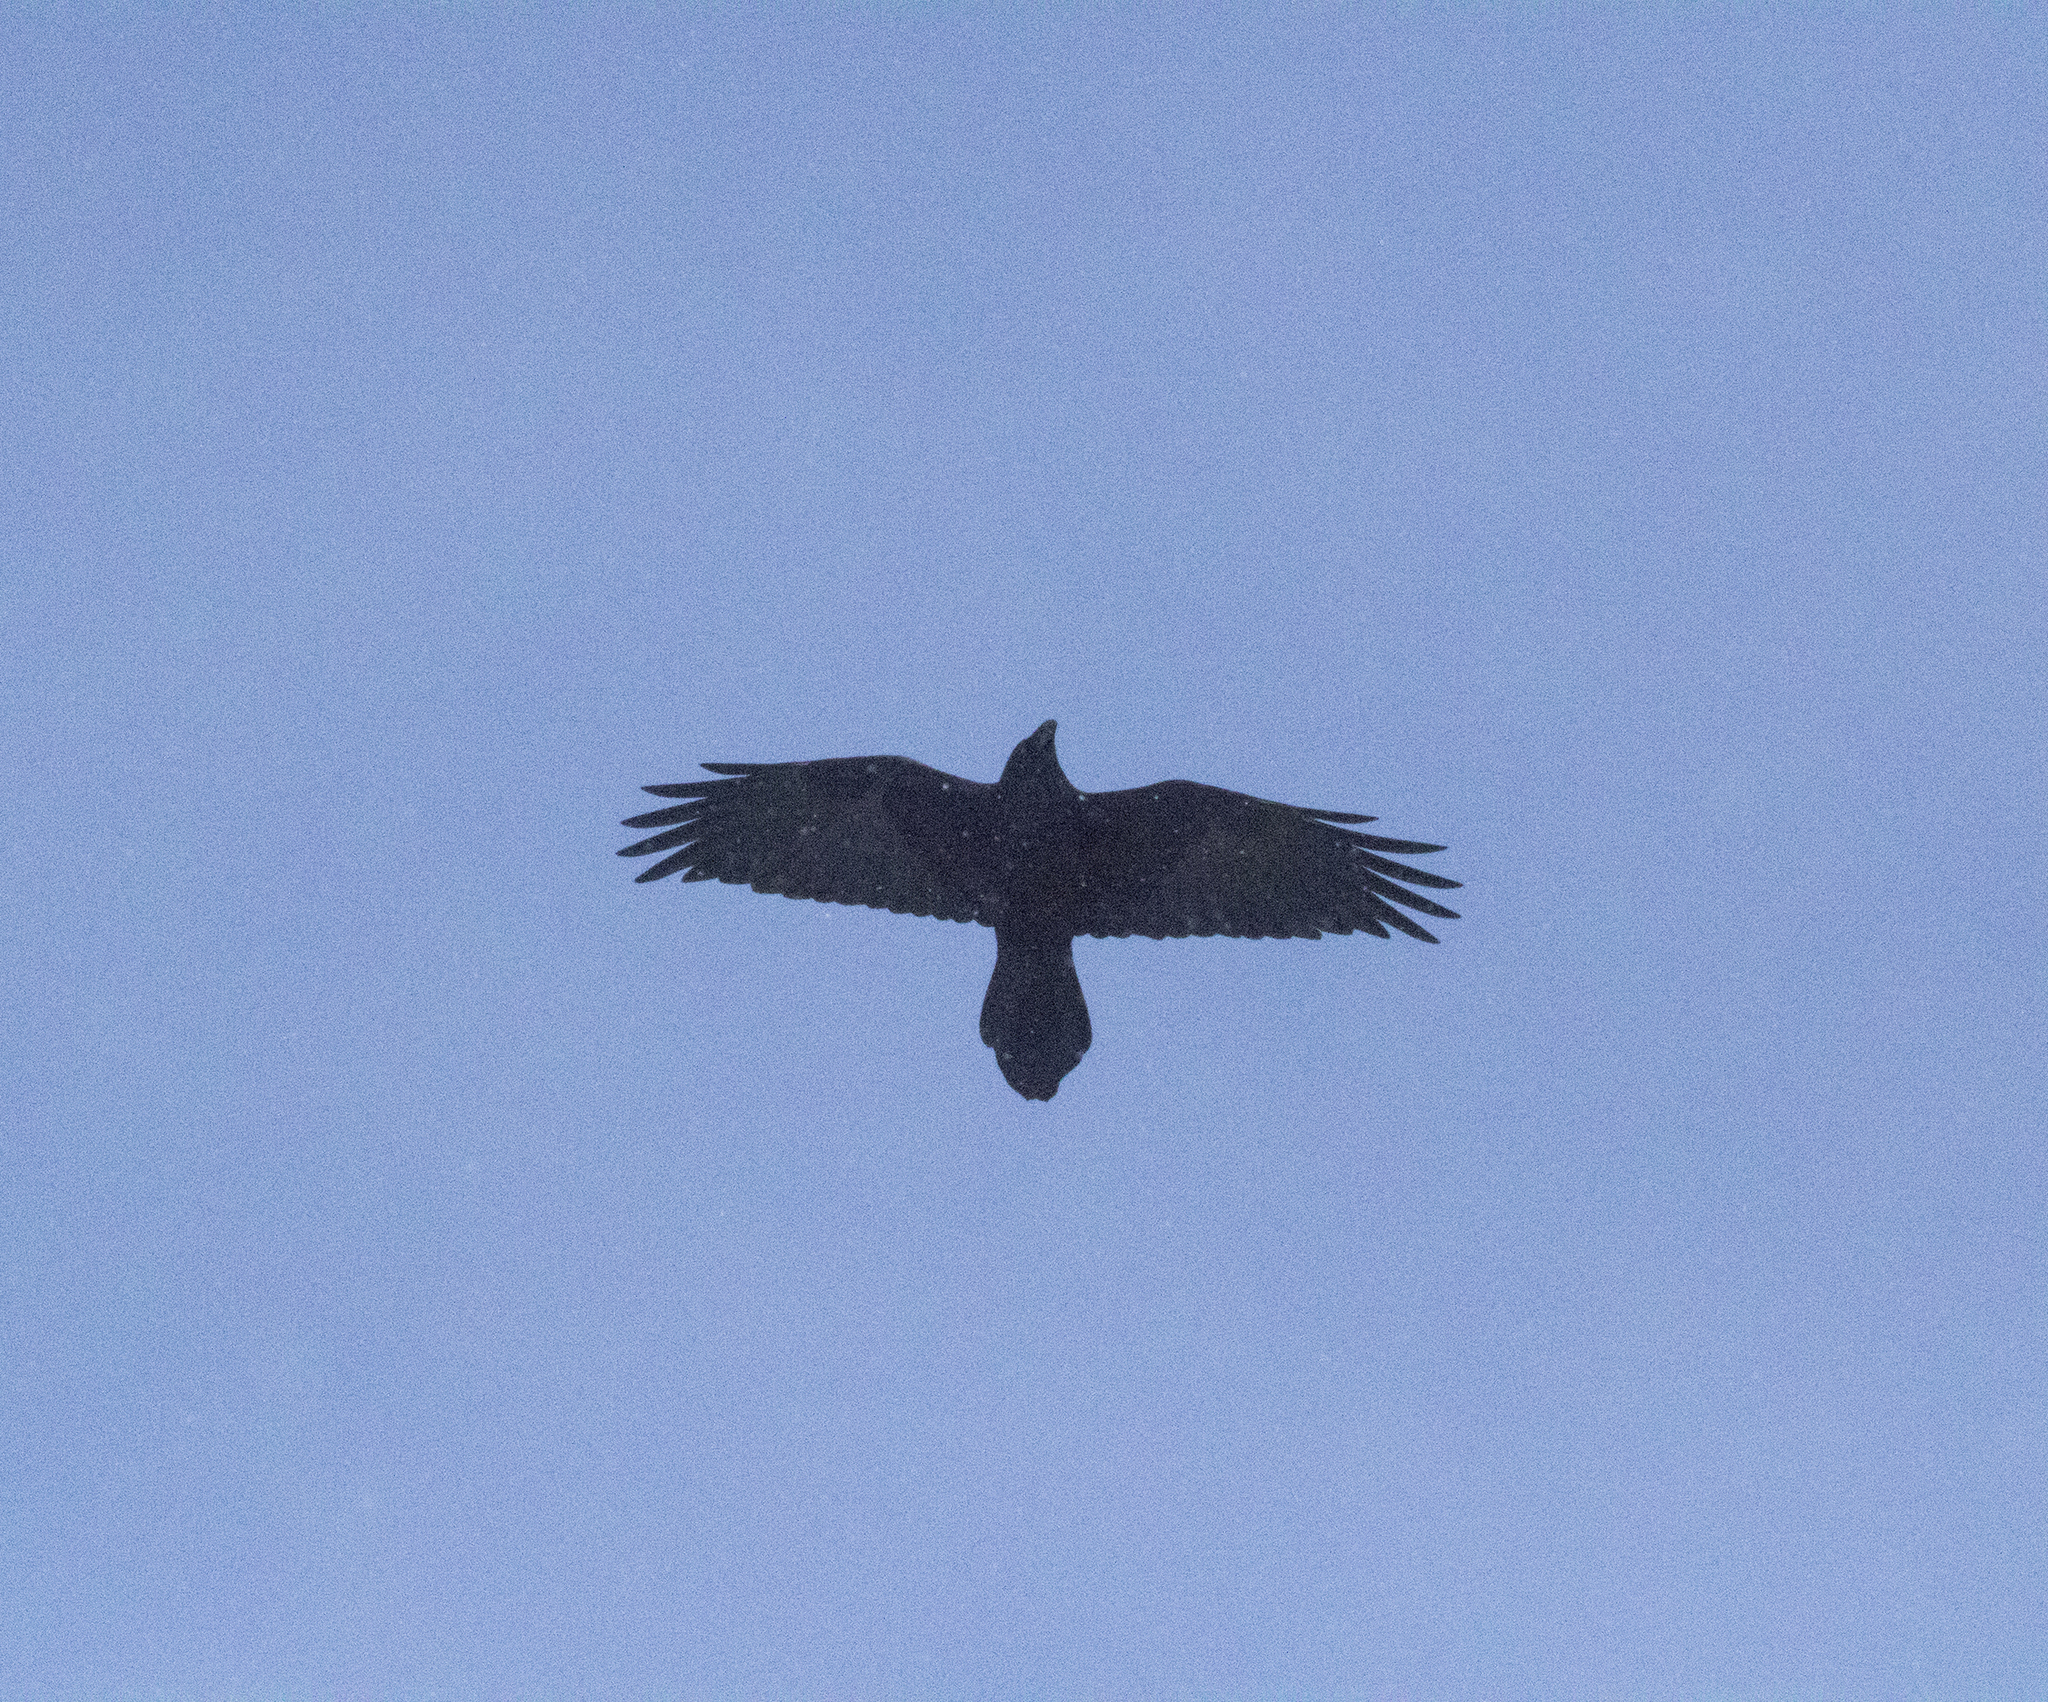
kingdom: Animalia
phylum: Chordata
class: Aves
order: Passeriformes
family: Corvidae
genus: Corvus
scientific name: Corvus corax
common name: Common raven
